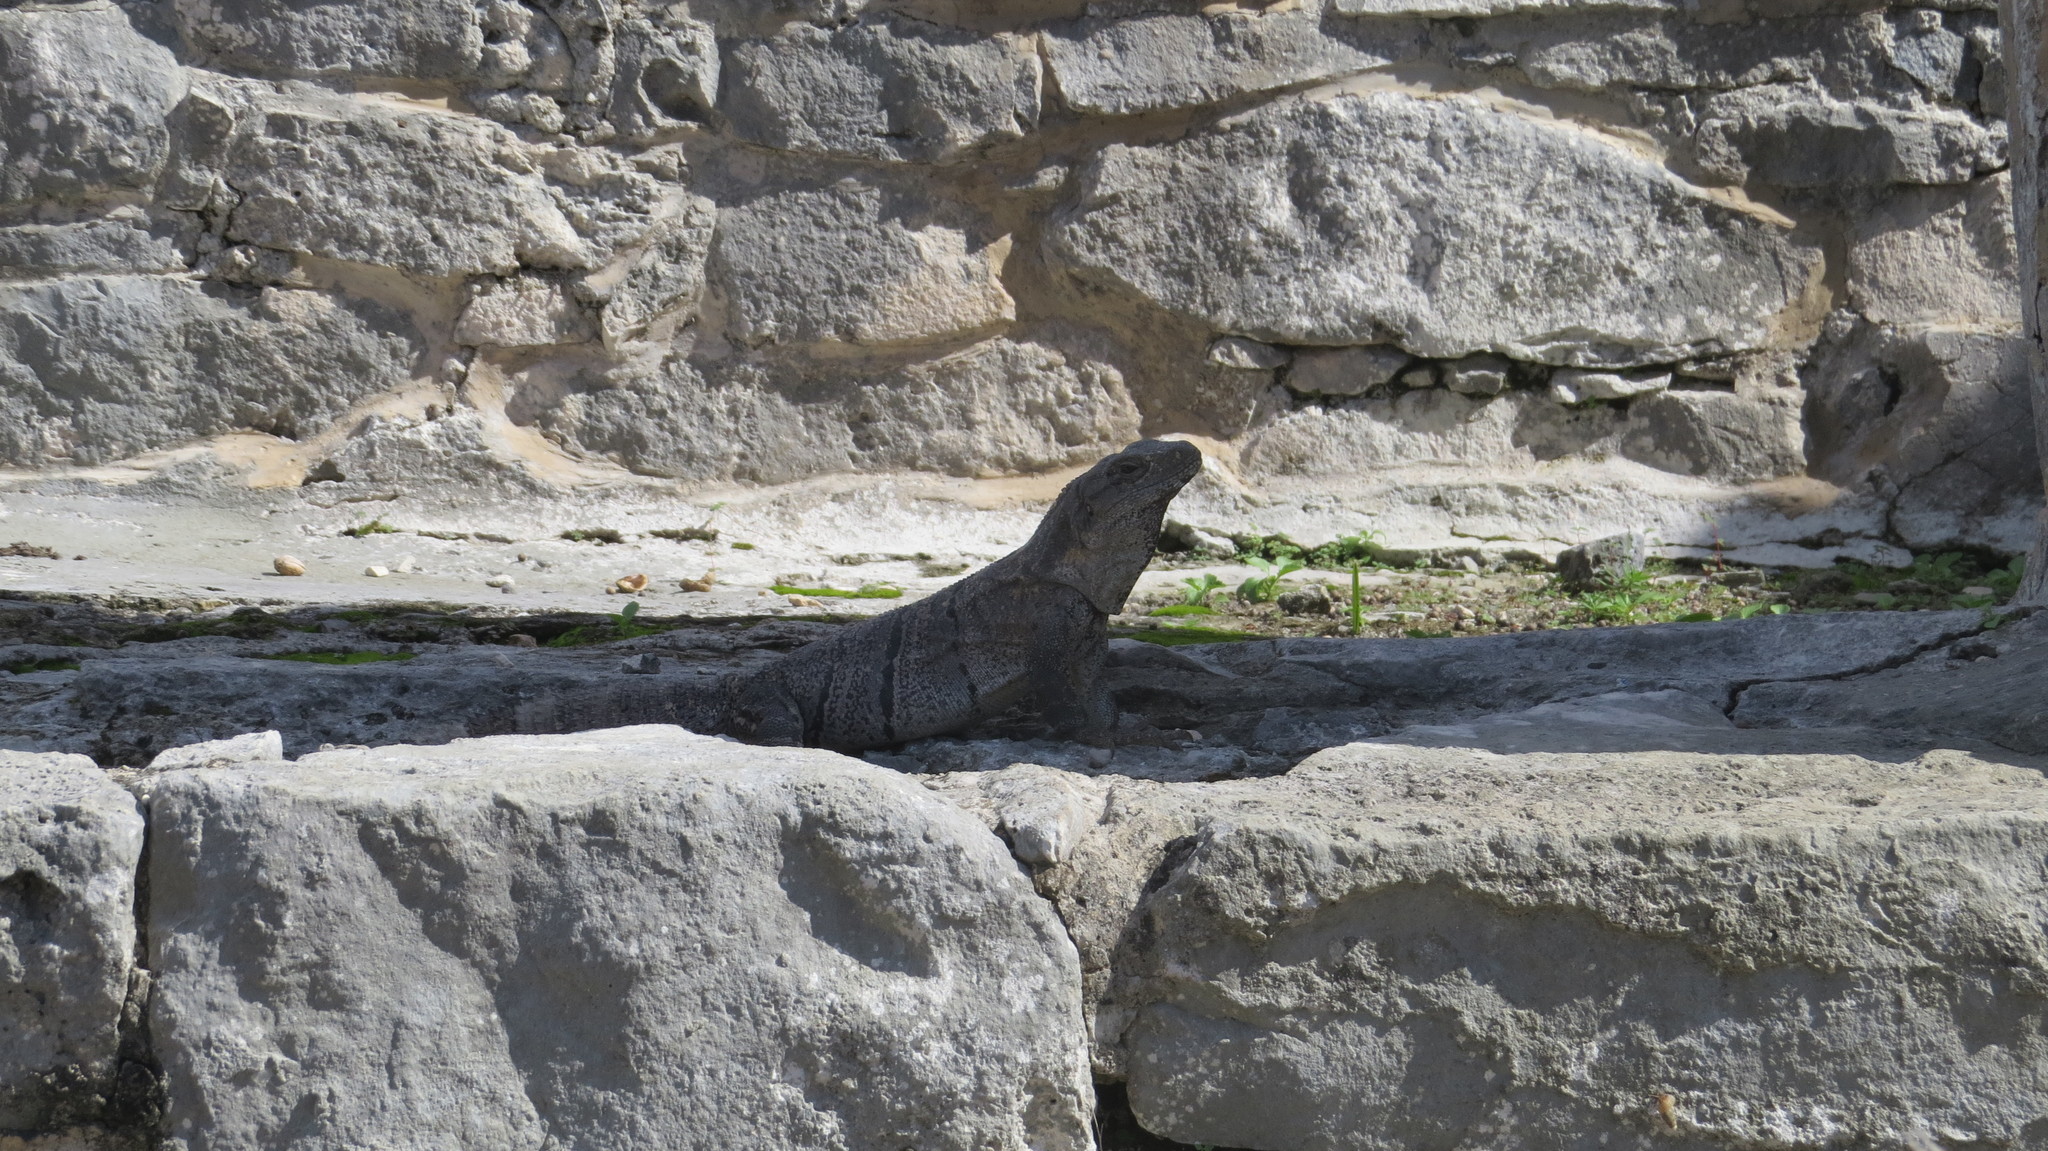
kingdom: Animalia
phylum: Chordata
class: Squamata
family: Iguanidae
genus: Ctenosaura
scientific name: Ctenosaura similis
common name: Black spiny-tailed iguana
